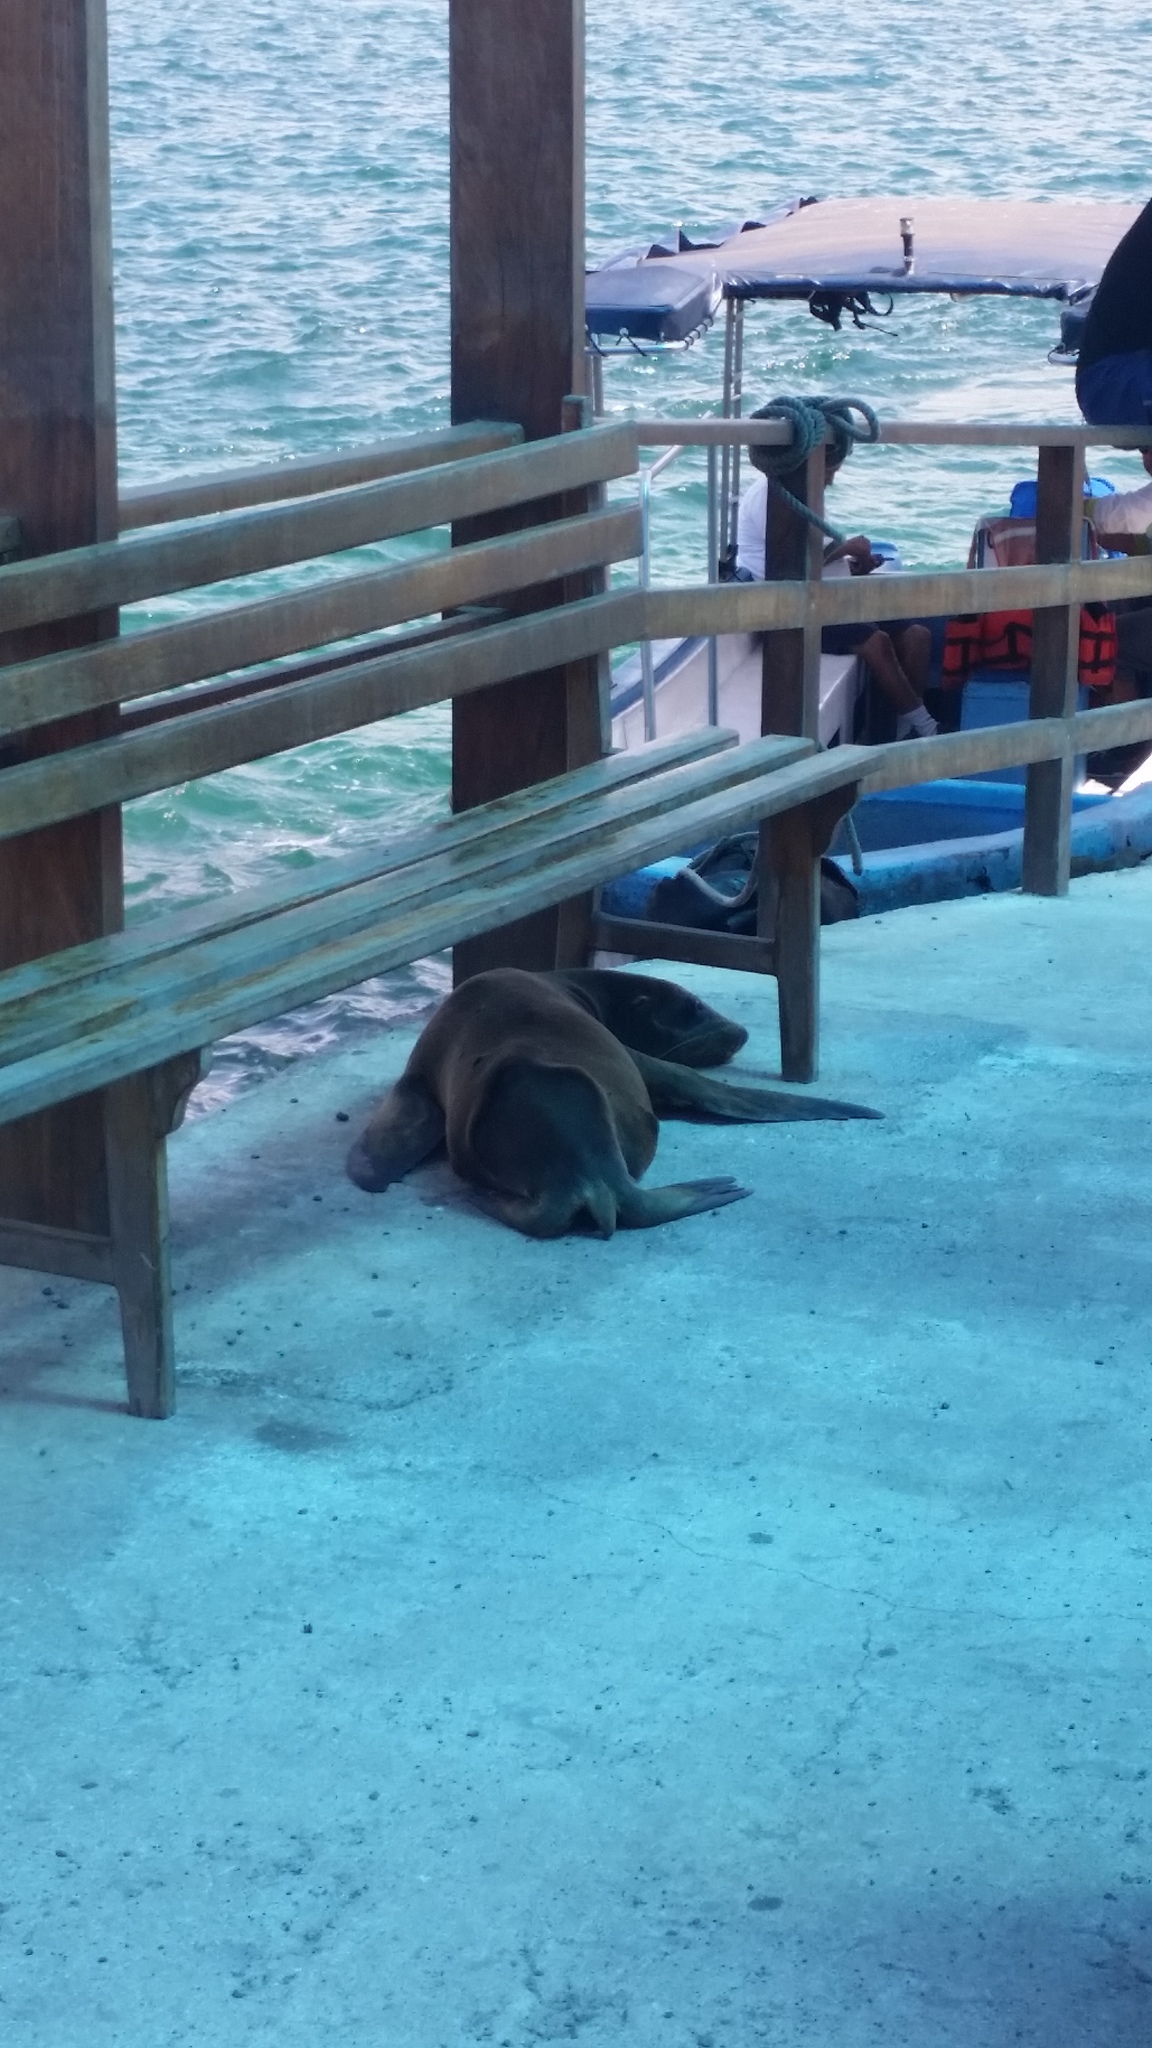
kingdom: Animalia
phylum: Chordata
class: Mammalia
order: Carnivora
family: Otariidae
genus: Zalophus
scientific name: Zalophus wollebaeki
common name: Galapagos sea lion
